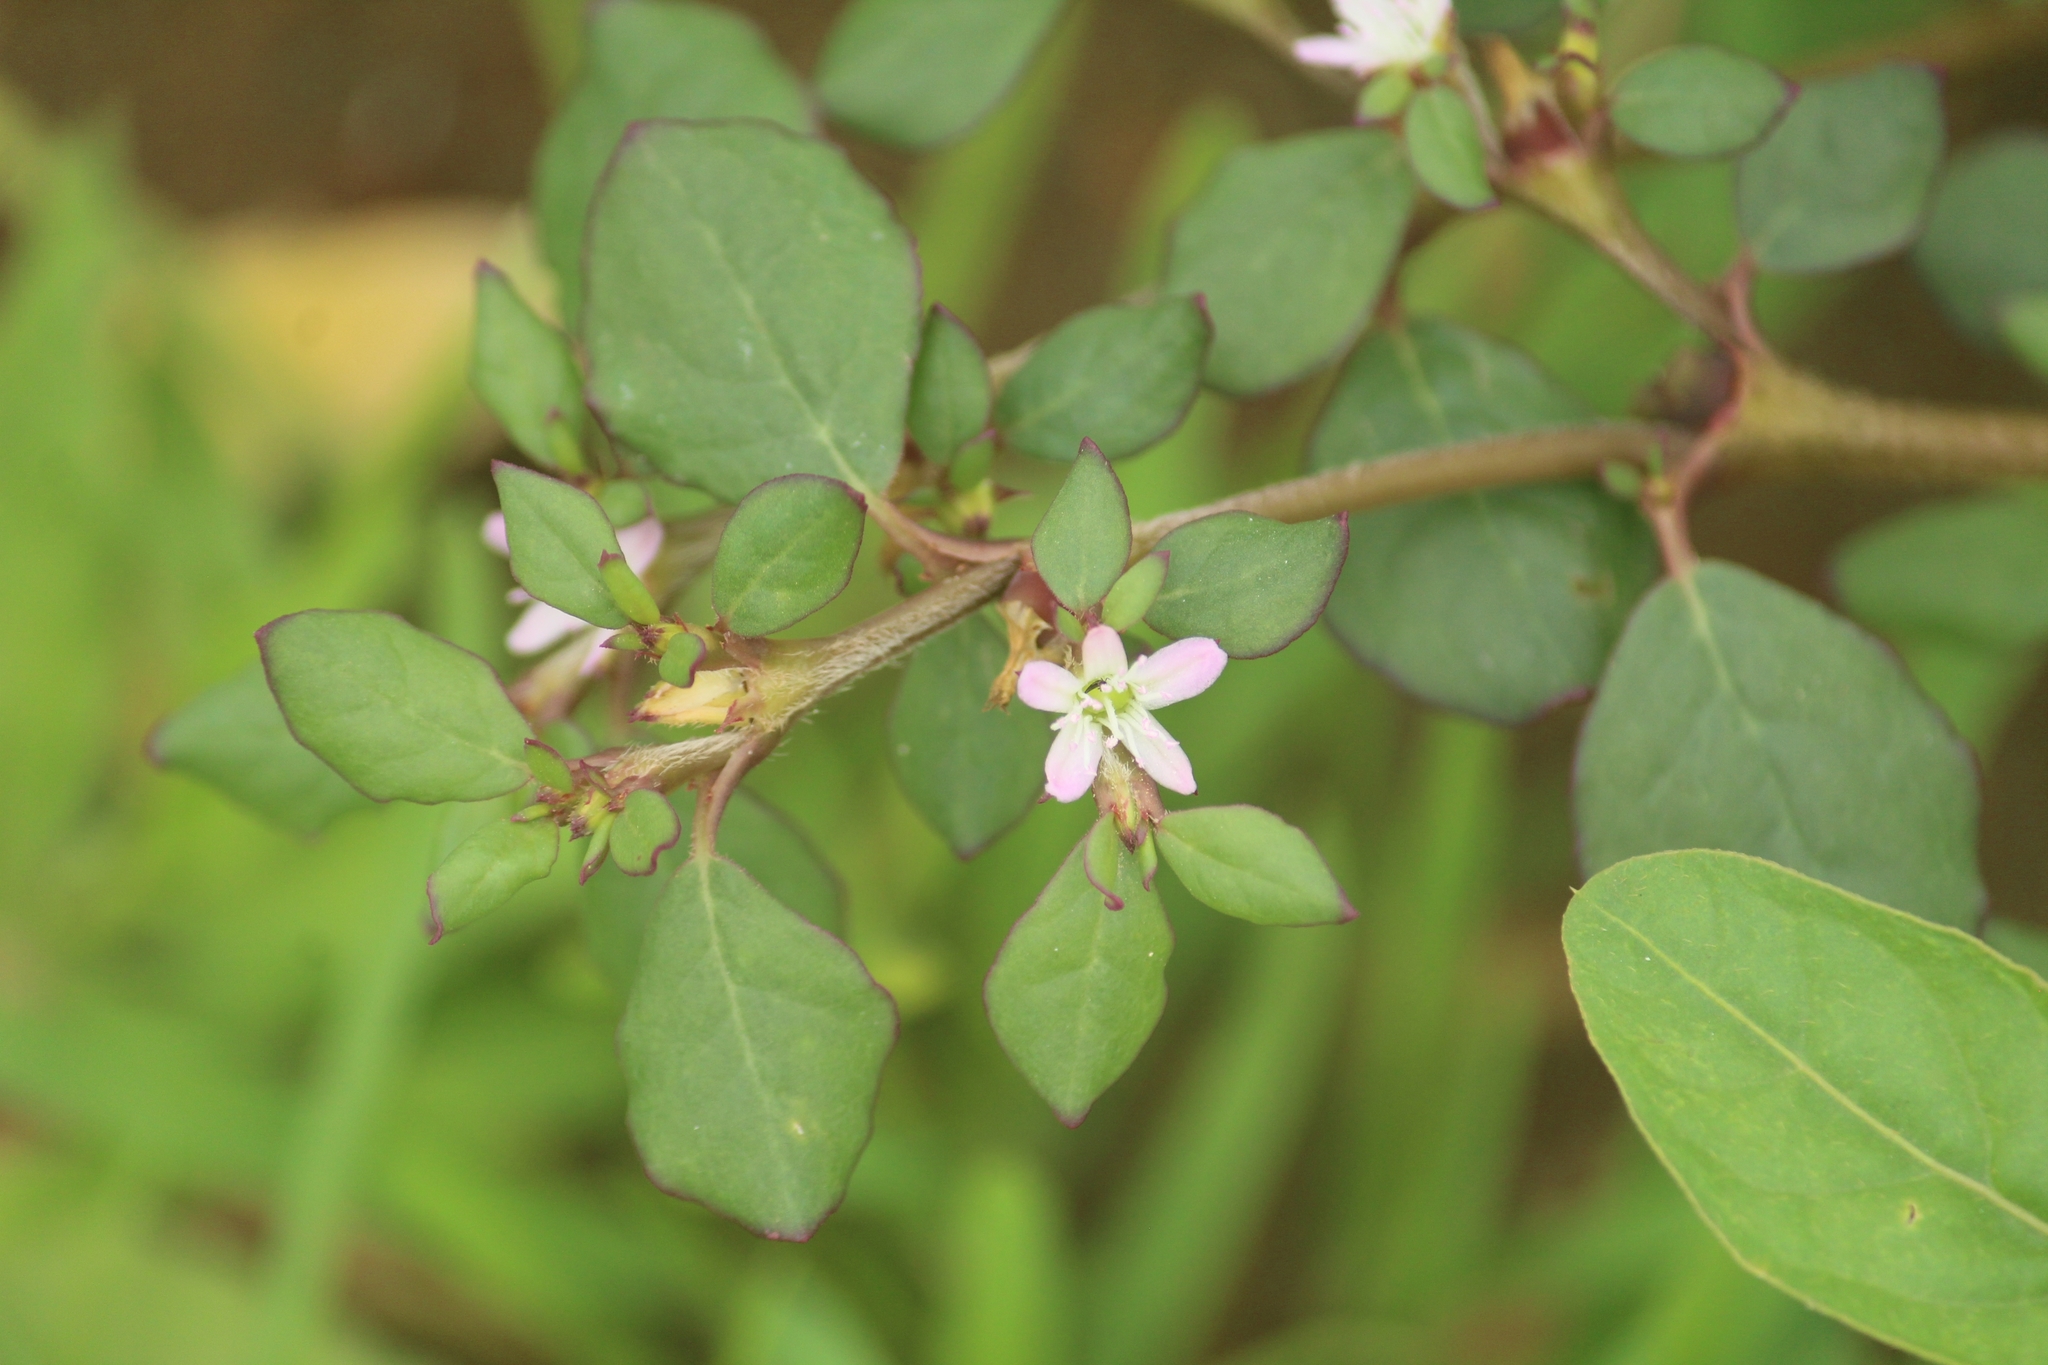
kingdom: Plantae
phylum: Tracheophyta
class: Magnoliopsida
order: Caryophyllales
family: Aizoaceae
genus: Trianthema
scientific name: Trianthema portulacastrum
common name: Desert horsepurslane
